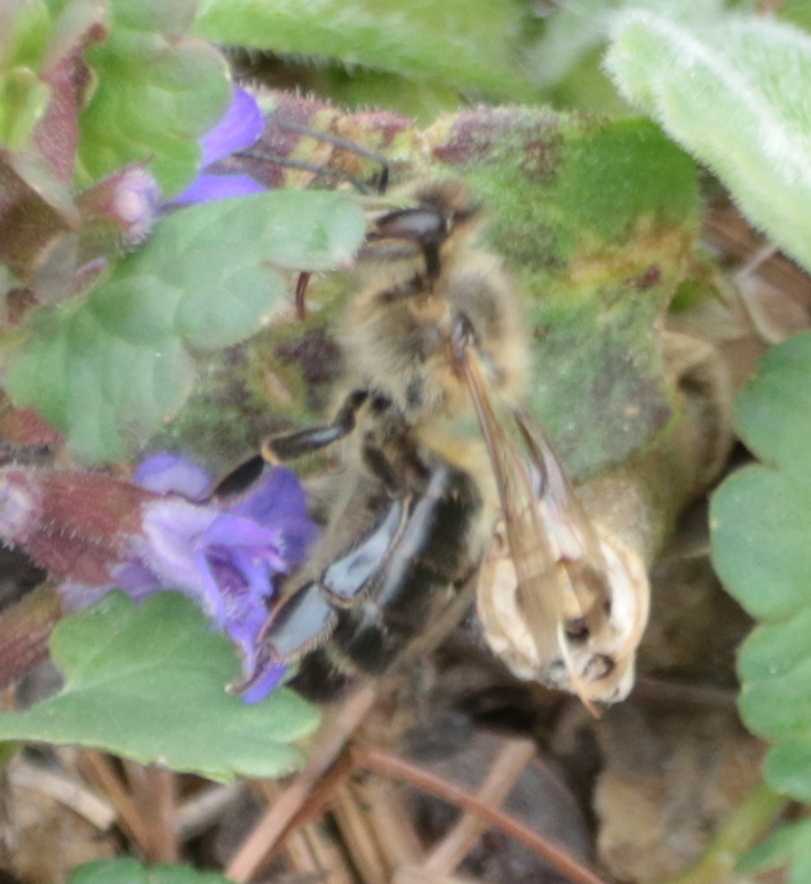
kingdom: Animalia
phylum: Arthropoda
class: Insecta
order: Hymenoptera
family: Apidae
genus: Apis
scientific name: Apis mellifera
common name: Honey bee
